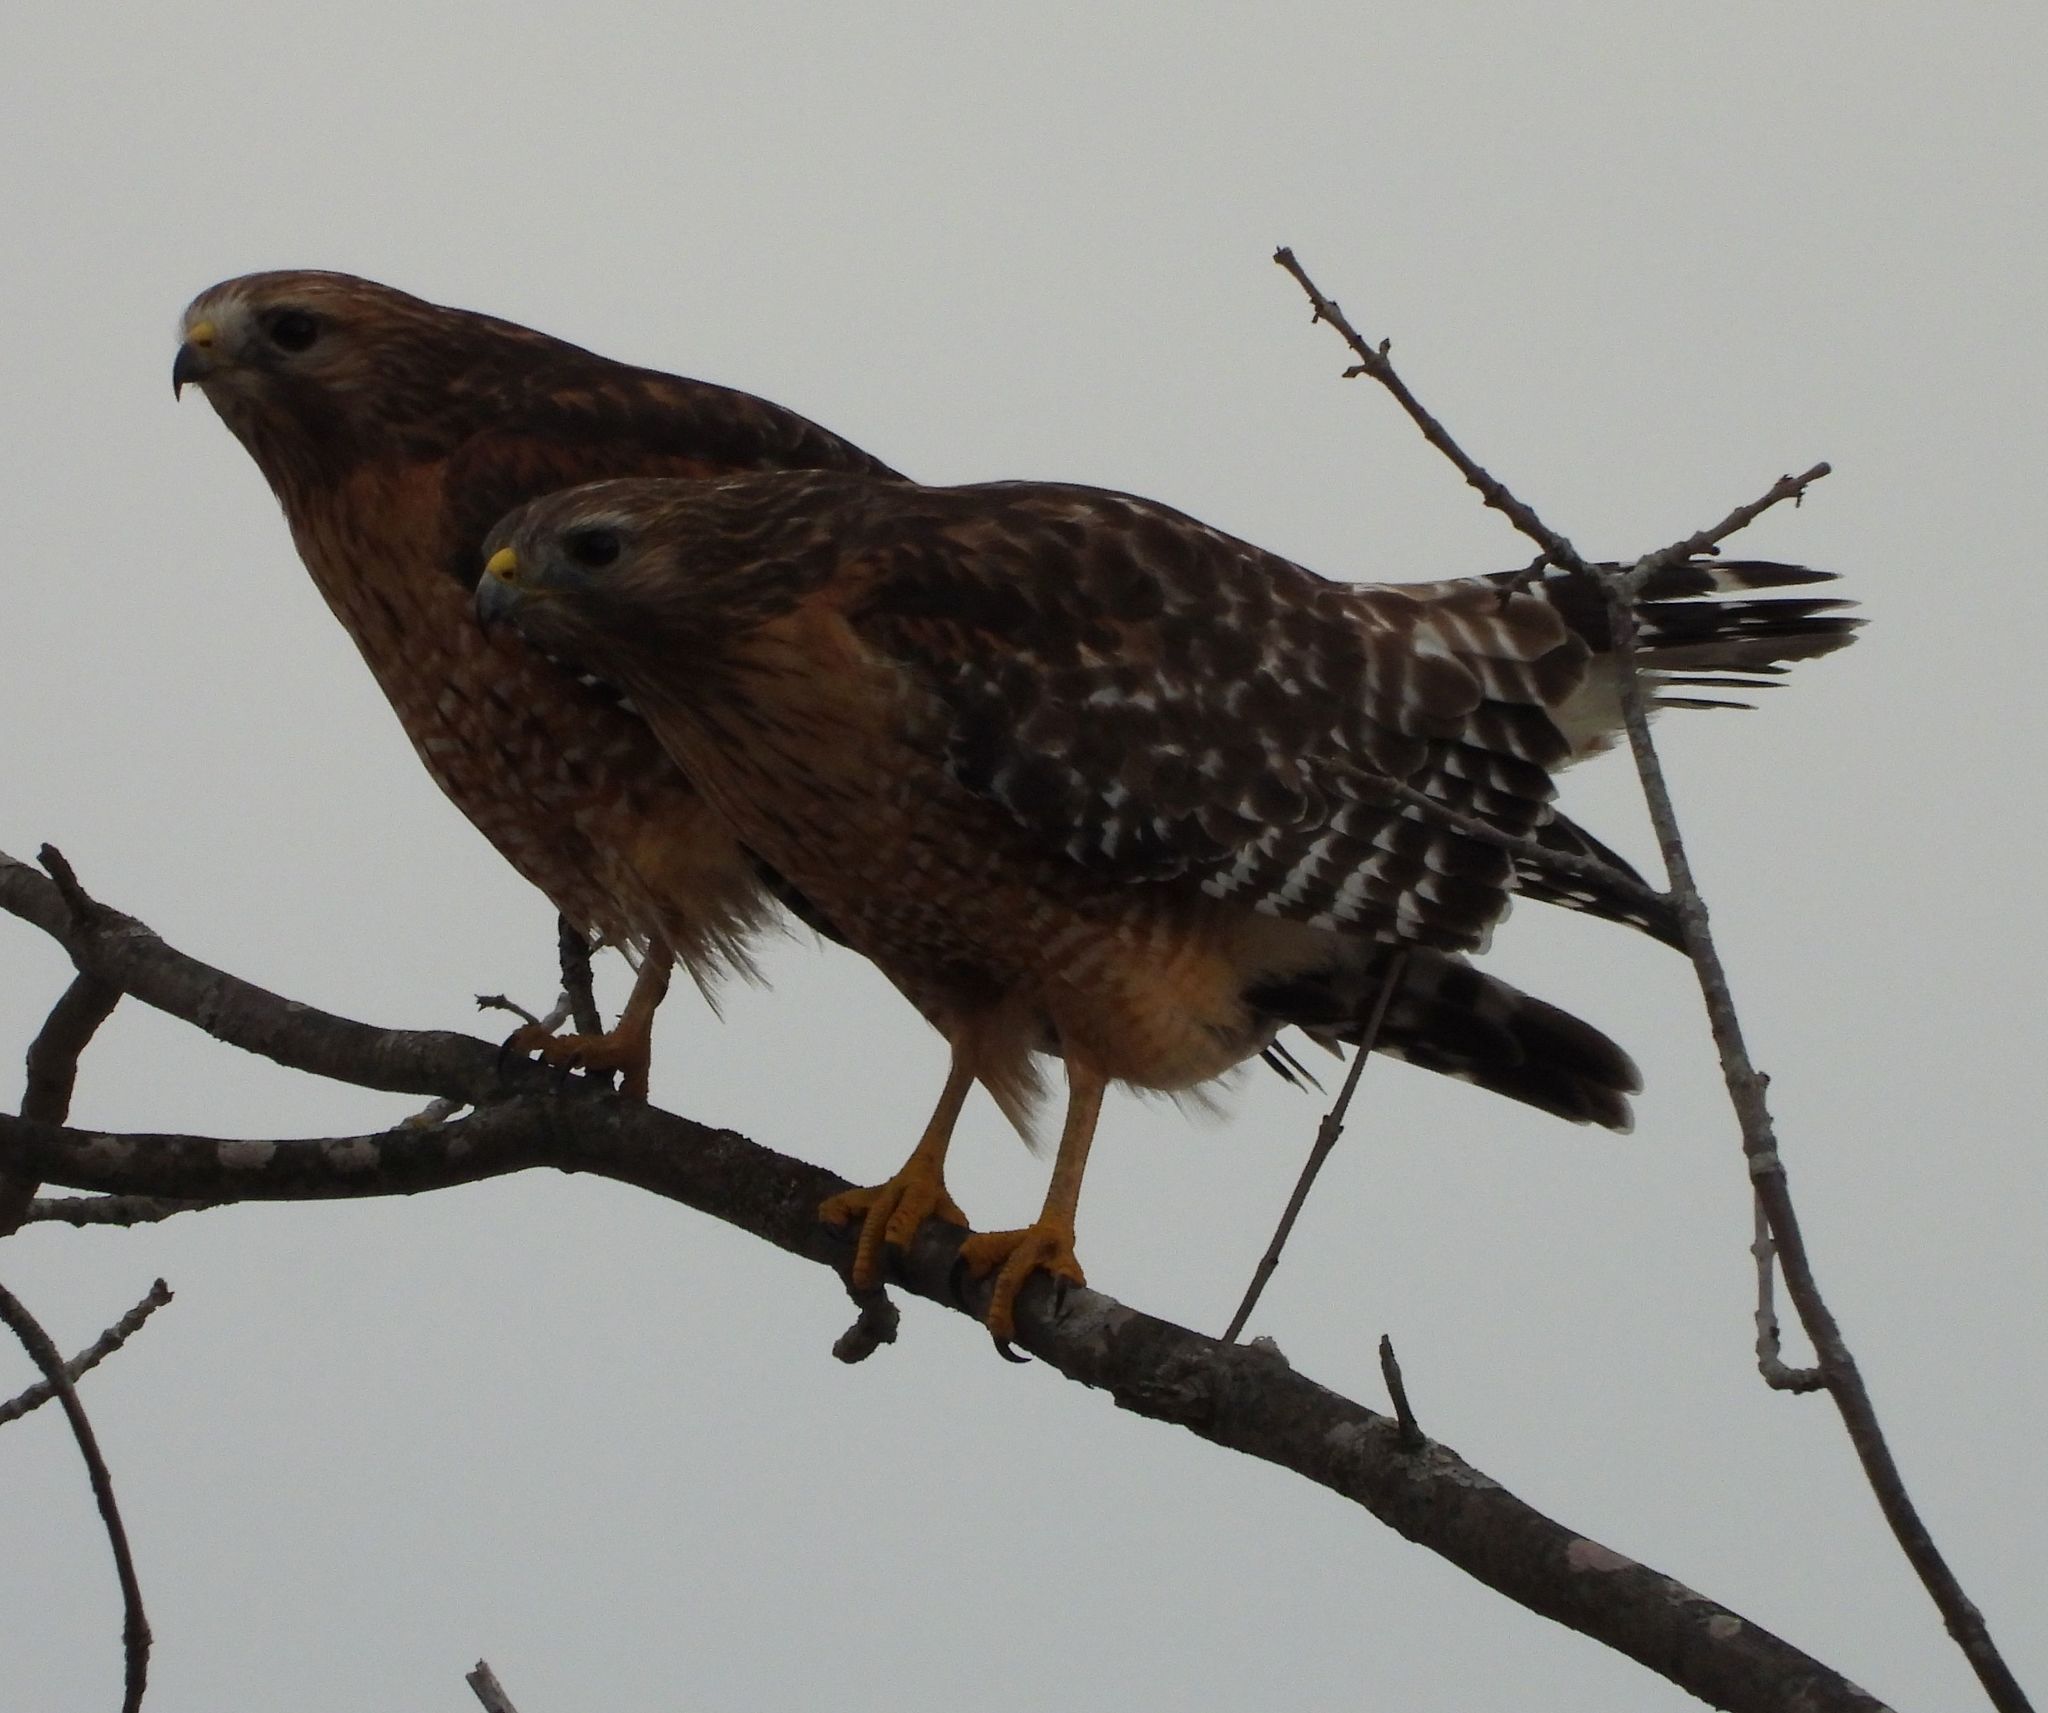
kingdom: Animalia
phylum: Chordata
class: Aves
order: Accipitriformes
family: Accipitridae
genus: Buteo
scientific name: Buteo lineatus
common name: Red-shouldered hawk
